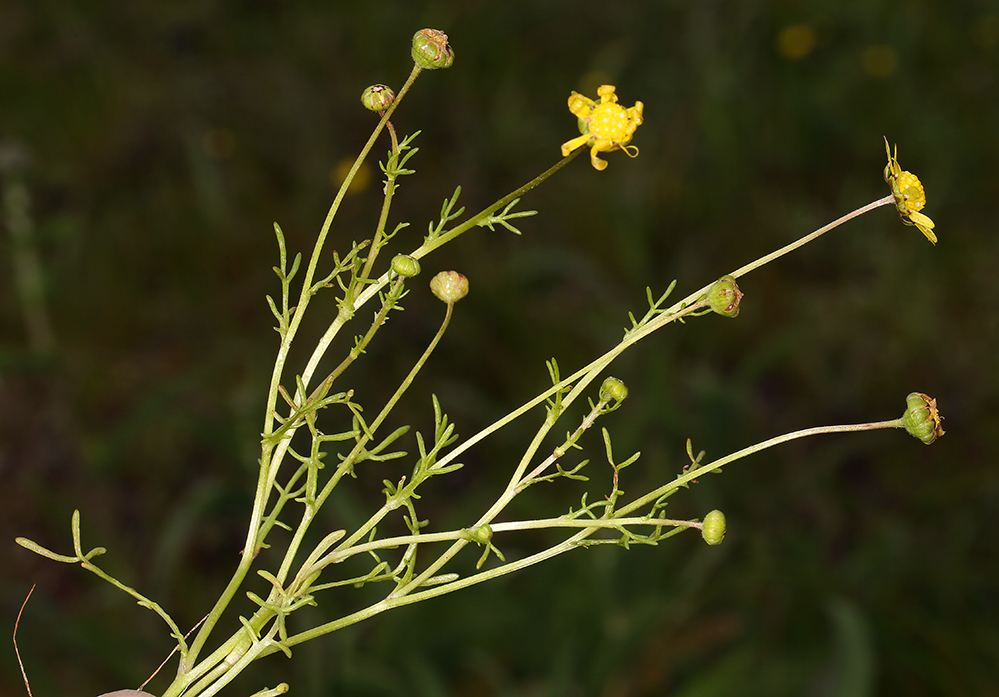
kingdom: Plantae
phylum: Tracheophyta
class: Magnoliopsida
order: Asterales
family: Asteraceae
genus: Blennosperma
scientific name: Blennosperma nanum
